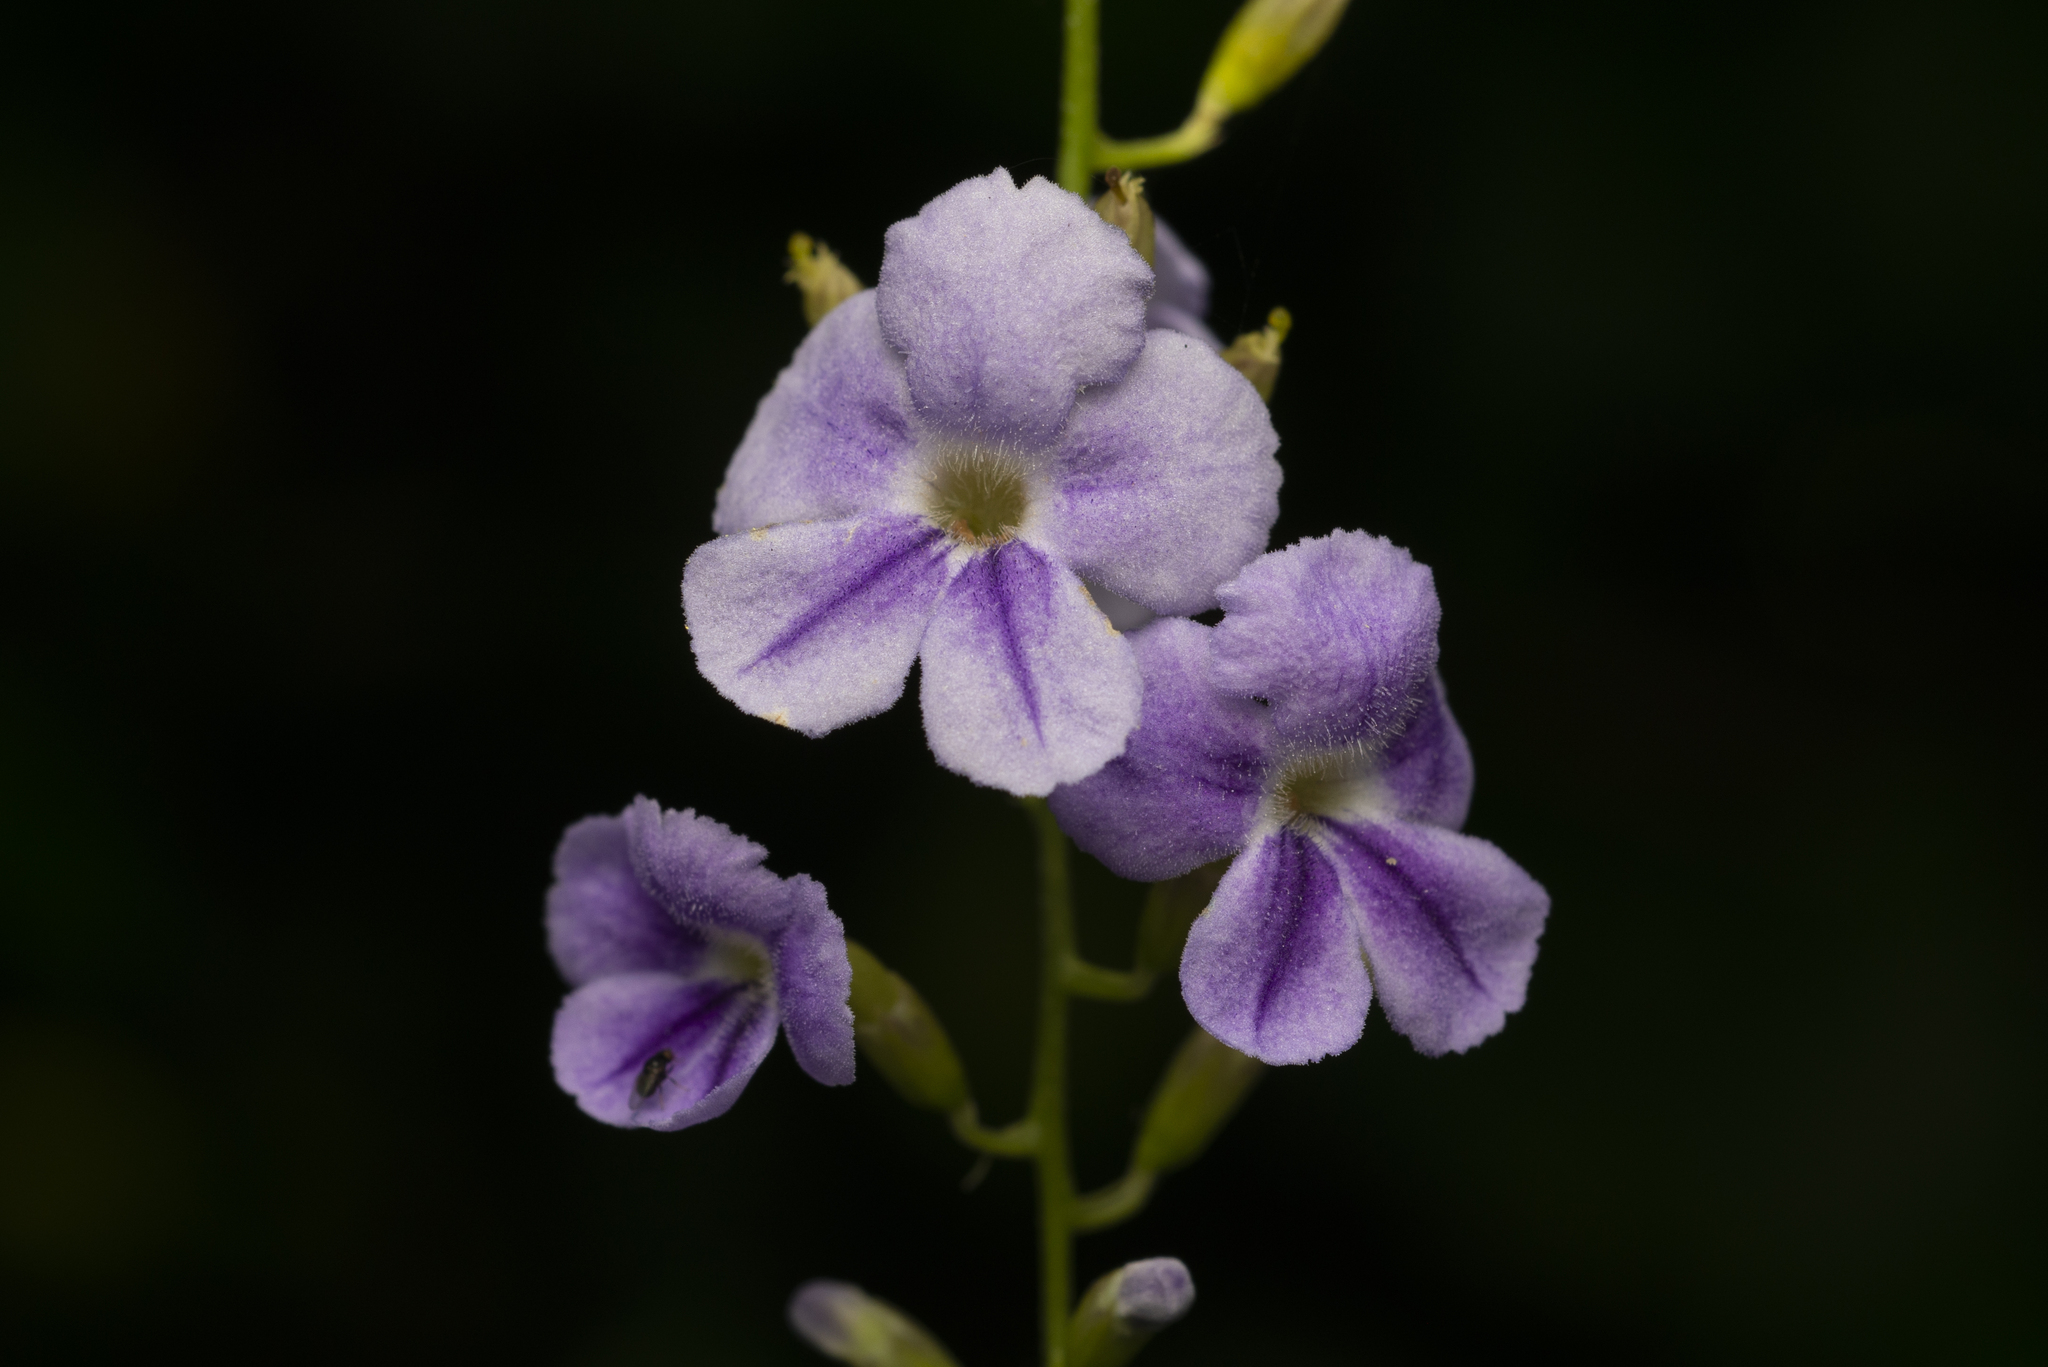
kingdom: Plantae
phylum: Tracheophyta
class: Magnoliopsida
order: Lamiales
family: Verbenaceae
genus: Duranta
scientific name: Duranta erecta
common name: Golden dewdrops
